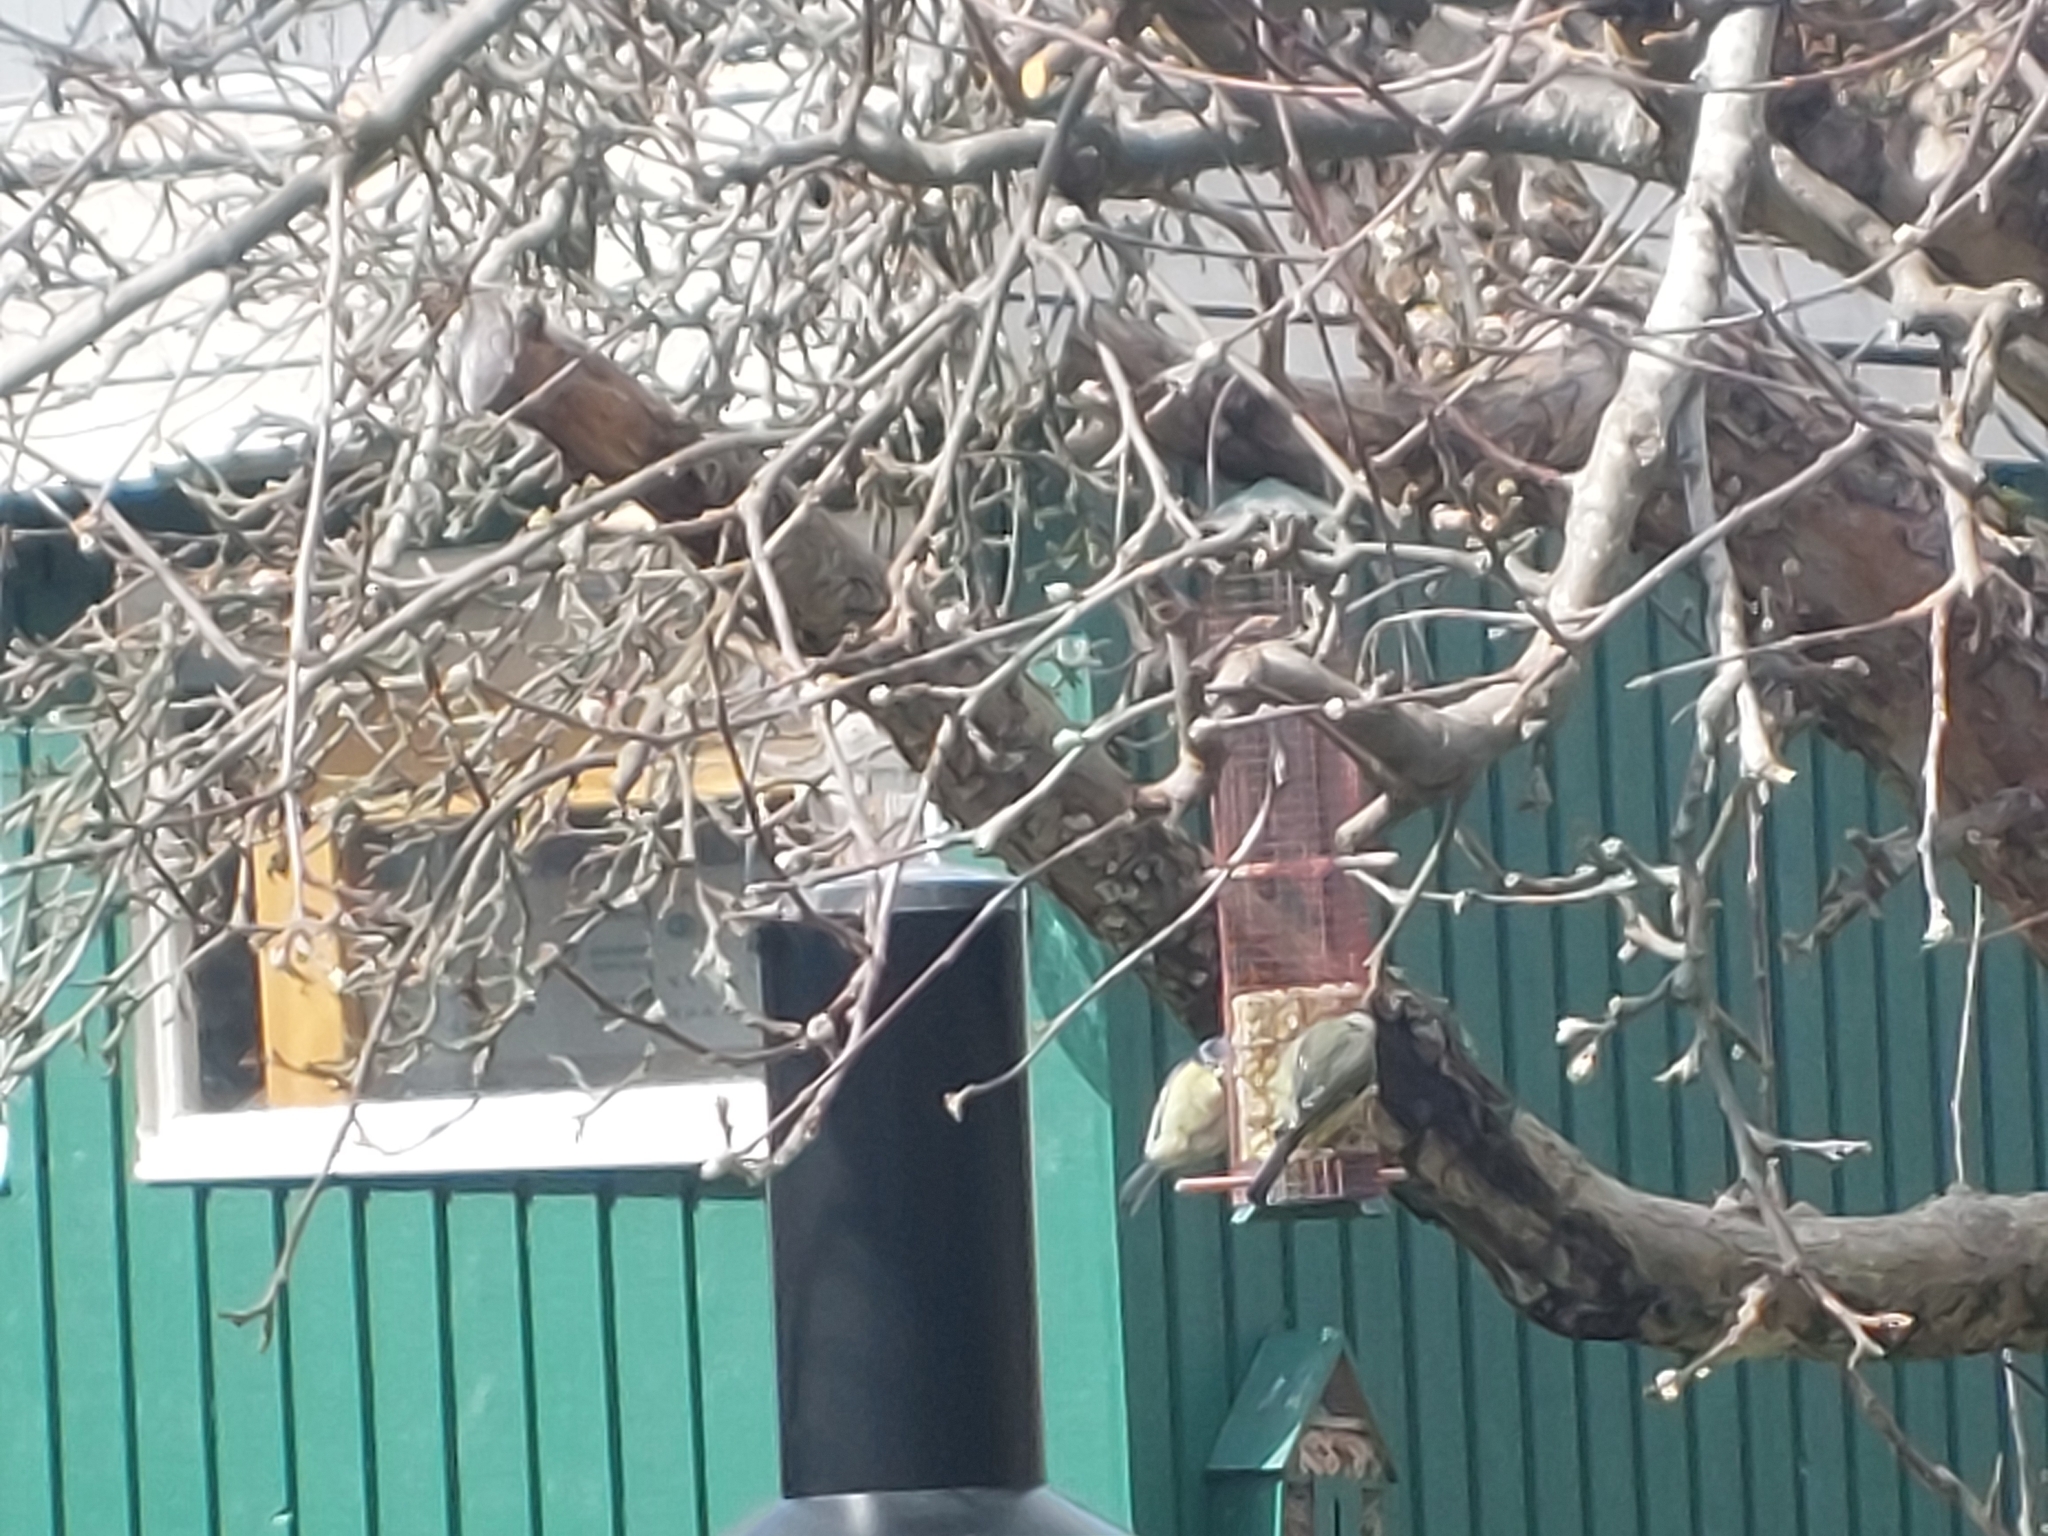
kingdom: Animalia
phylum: Chordata
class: Aves
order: Passeriformes
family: Paridae
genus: Cyanistes
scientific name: Cyanistes caeruleus
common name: Eurasian blue tit
